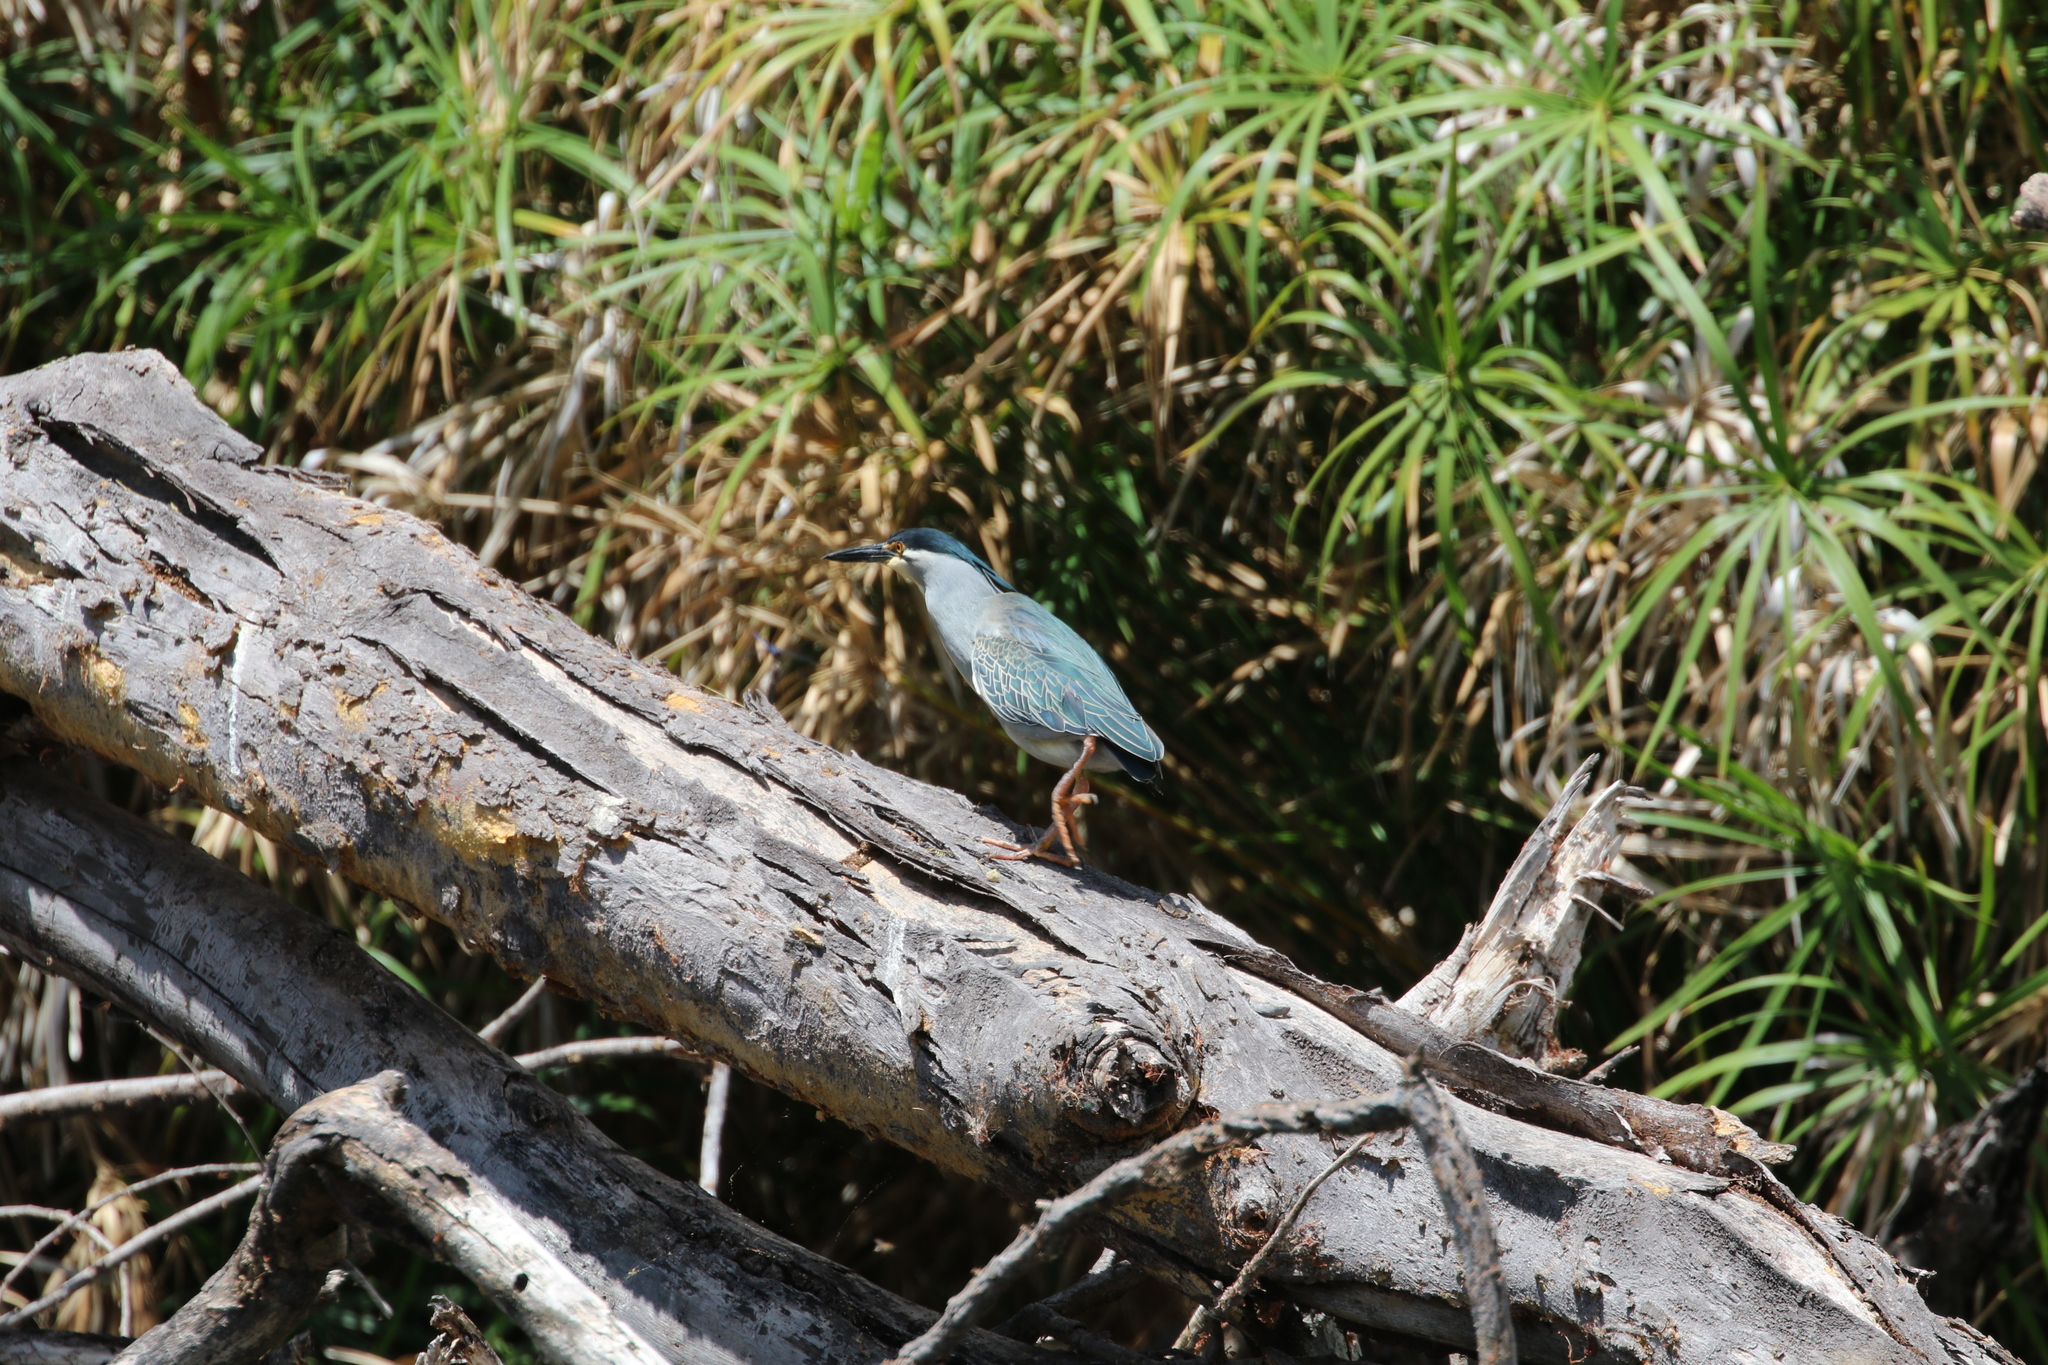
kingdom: Animalia
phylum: Chordata
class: Aves
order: Pelecaniformes
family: Ardeidae
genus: Butorides
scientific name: Butorides striata
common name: Striated heron
